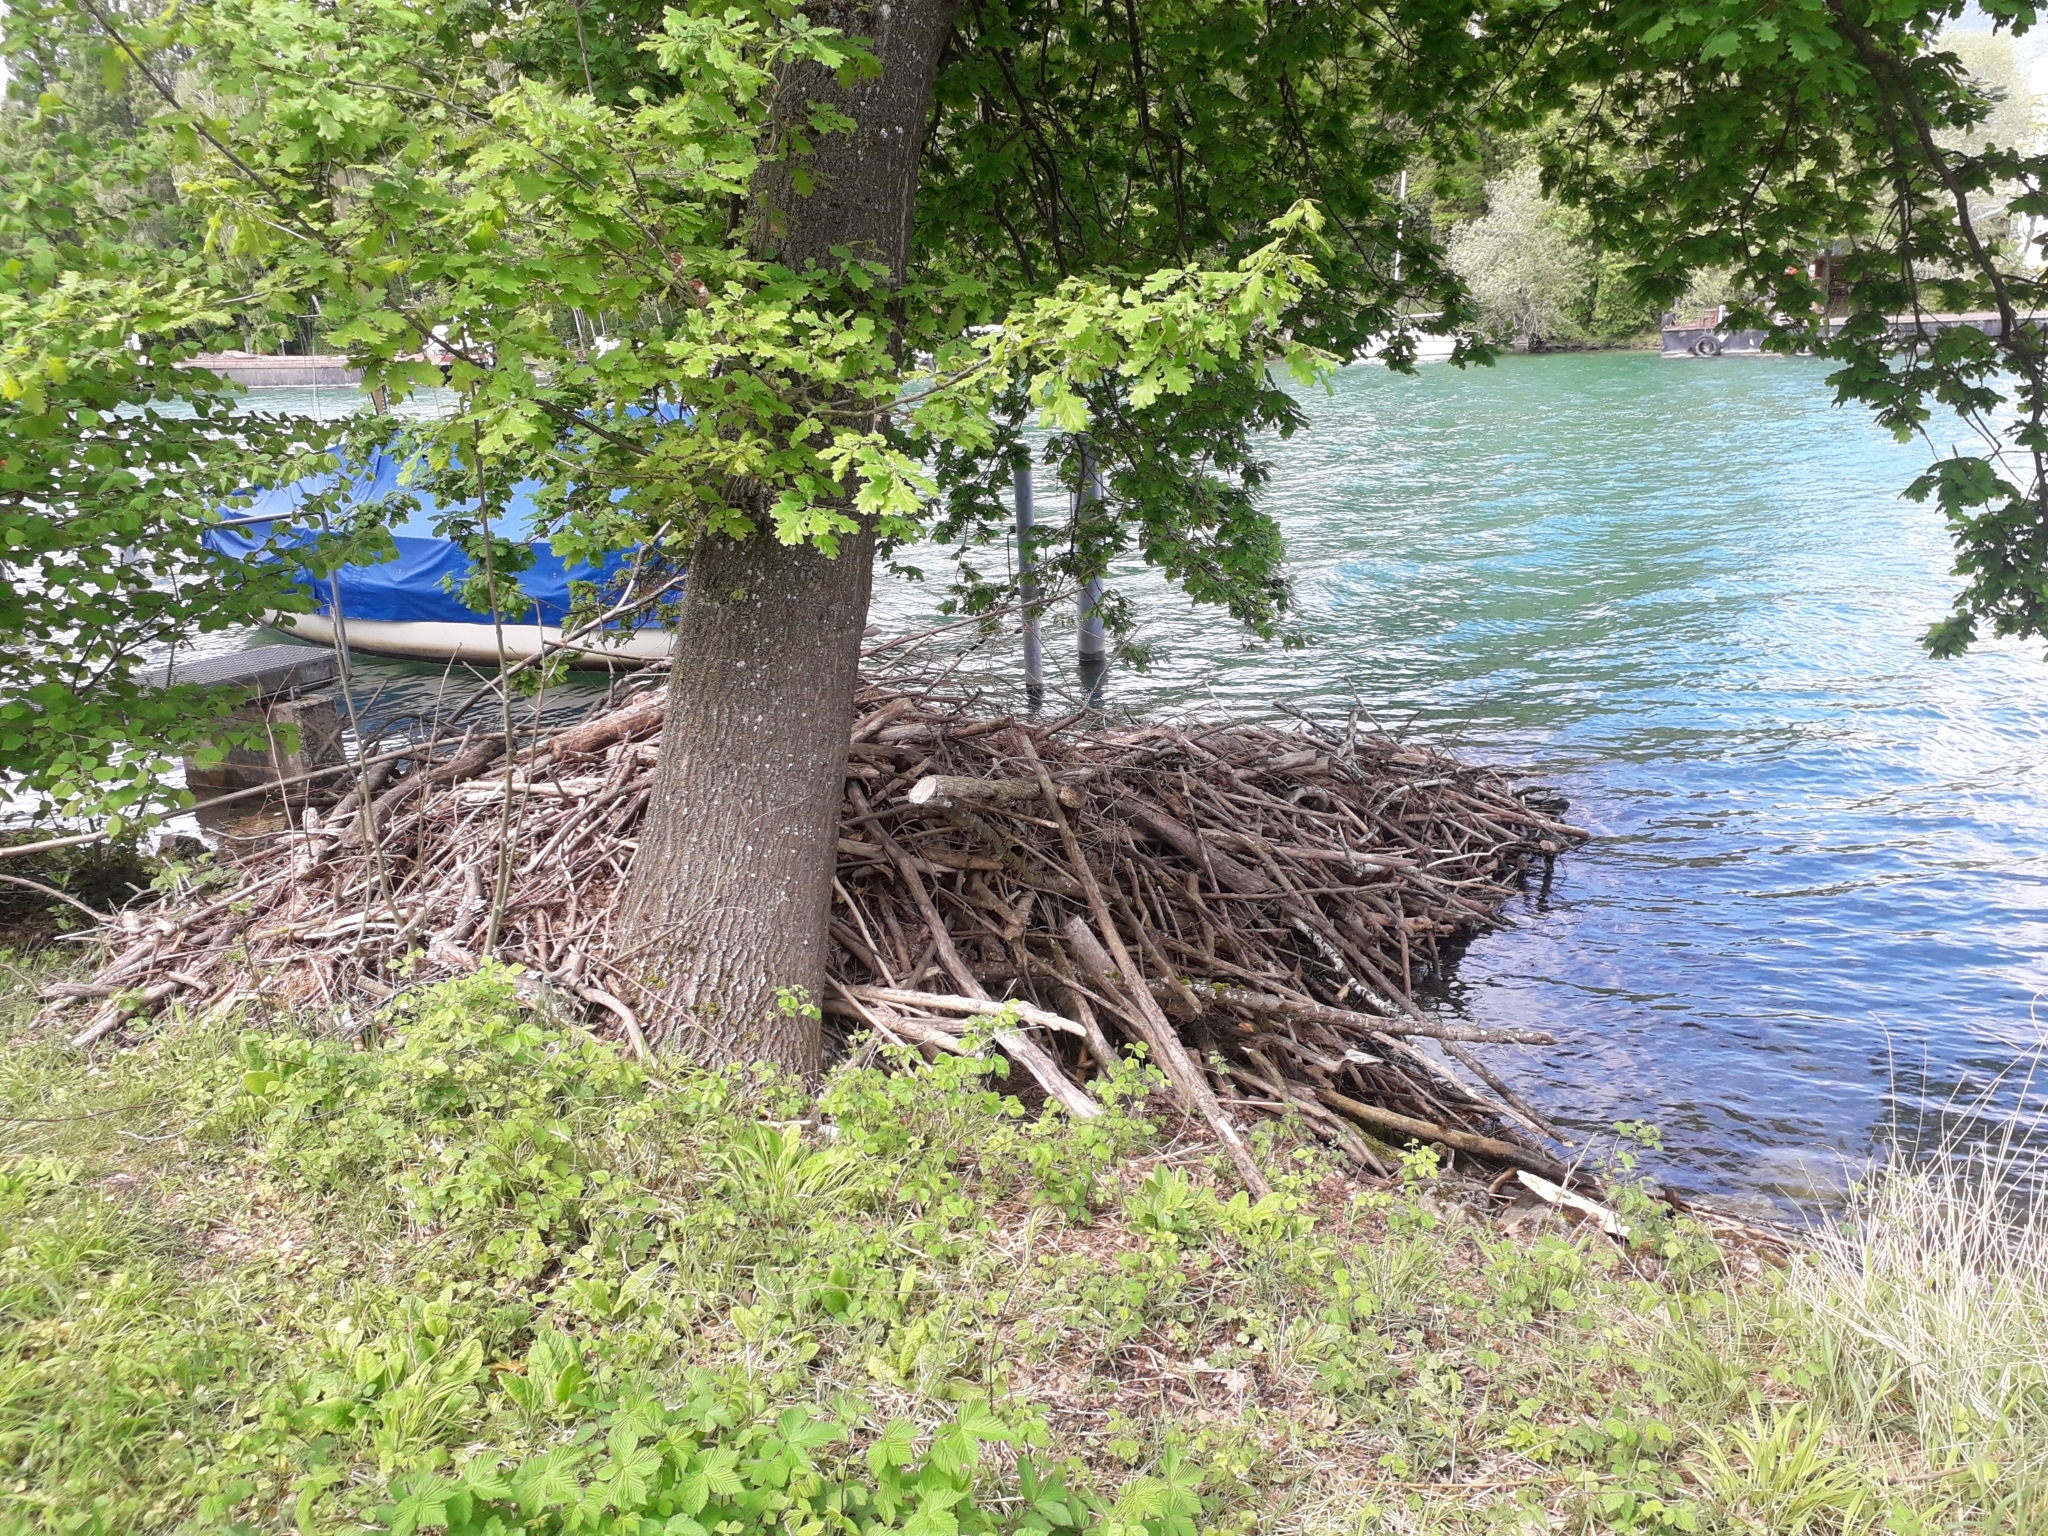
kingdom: Animalia
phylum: Chordata
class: Mammalia
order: Rodentia
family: Castoridae
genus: Castor
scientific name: Castor fiber
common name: Eurasian beaver
